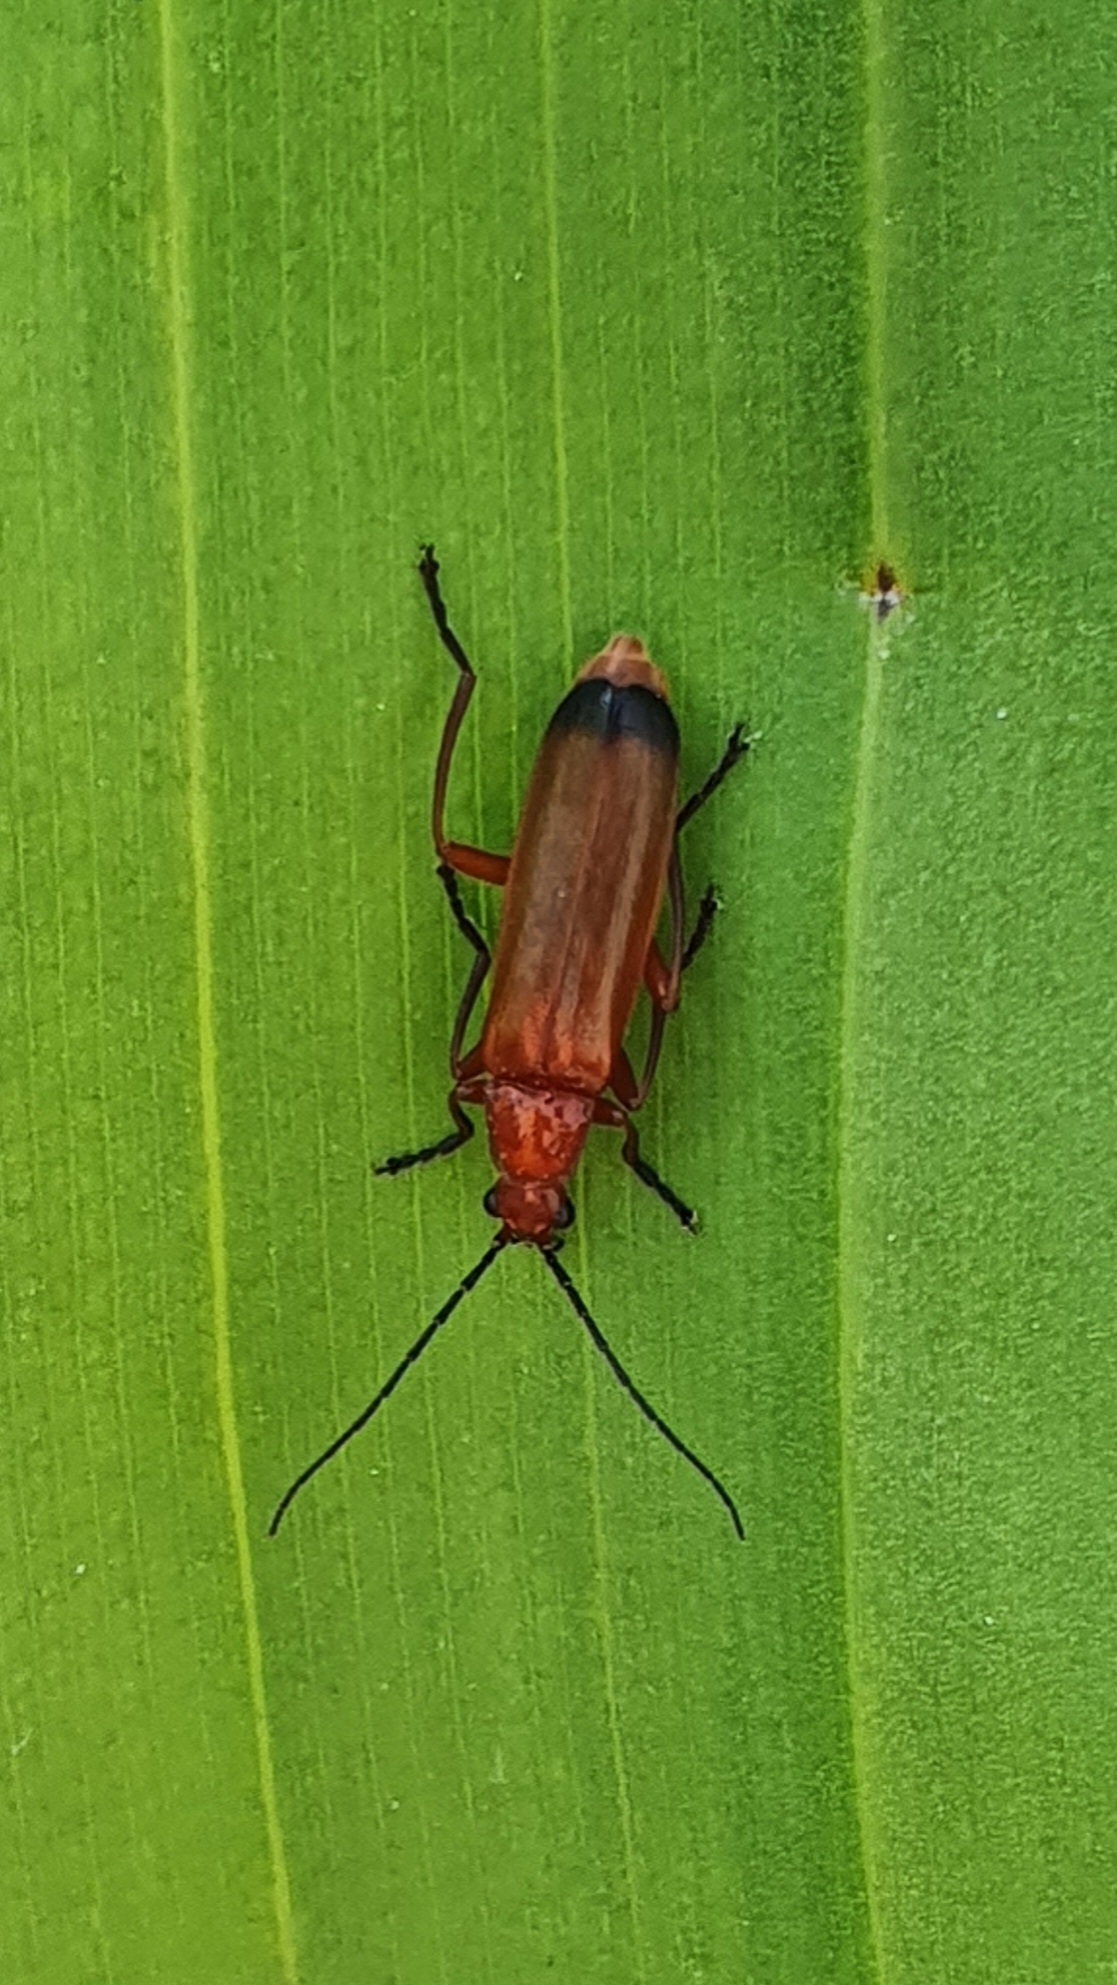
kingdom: Animalia
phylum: Arthropoda
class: Insecta
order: Coleoptera
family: Cantharidae
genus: Rhagonycha
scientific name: Rhagonycha fulva
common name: Common red soldier beetle
